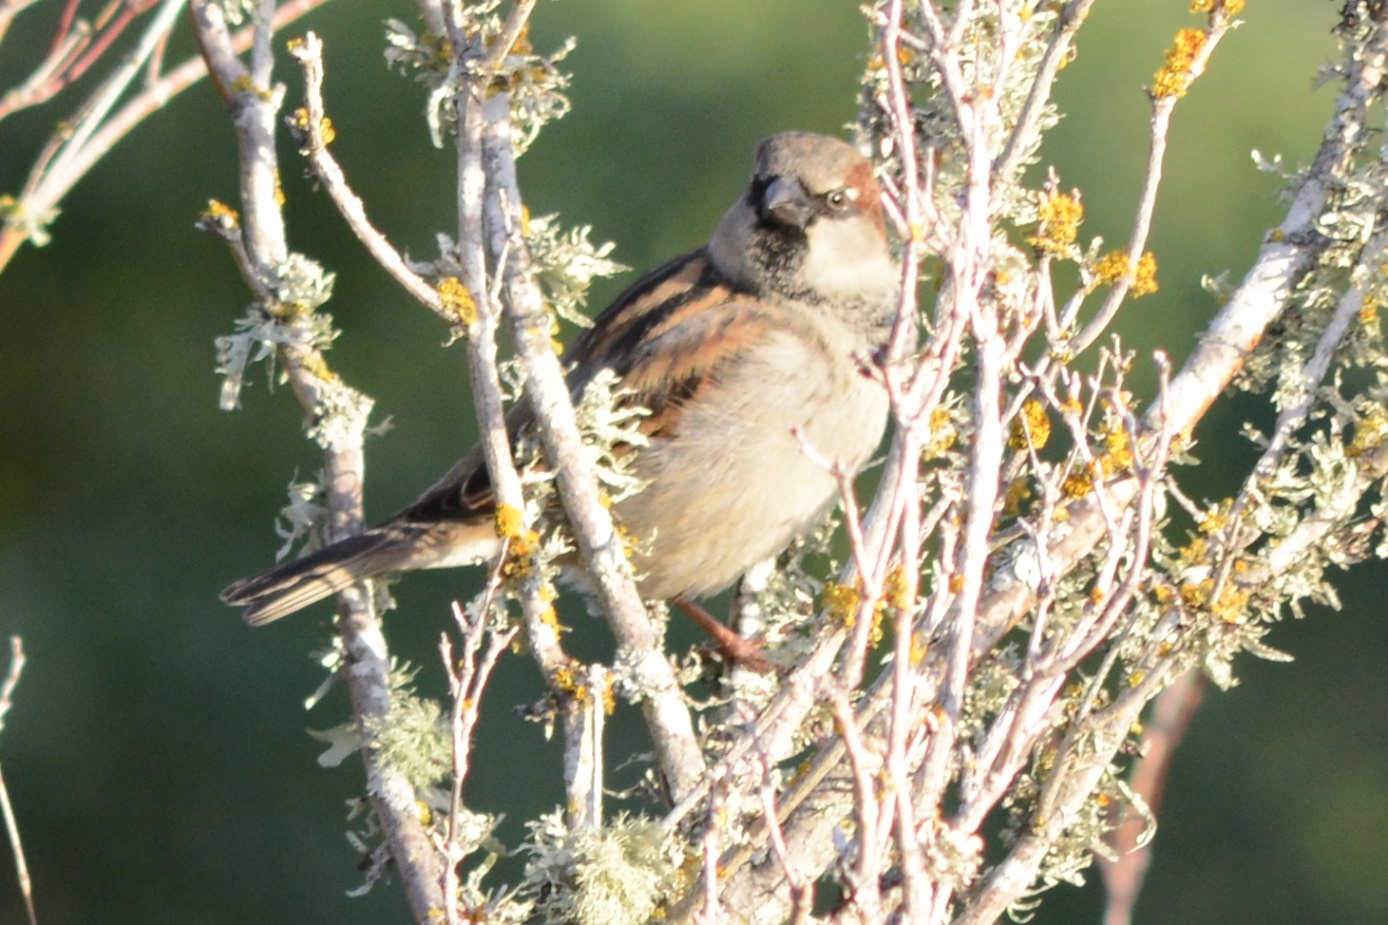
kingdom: Animalia
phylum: Chordata
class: Aves
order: Passeriformes
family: Passeridae
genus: Passer
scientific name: Passer domesticus
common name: House sparrow
